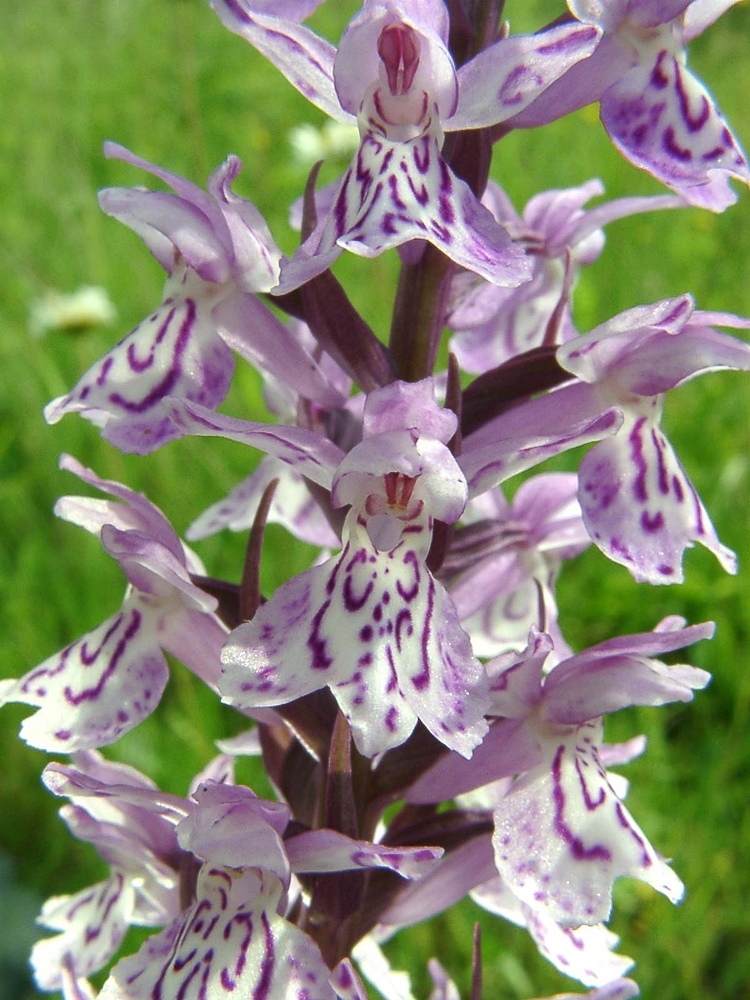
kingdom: Plantae
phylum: Tracheophyta
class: Liliopsida
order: Asparagales
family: Orchidaceae
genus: Dactylorhiza
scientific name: Dactylorhiza maculata
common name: Heath spotted-orchid
